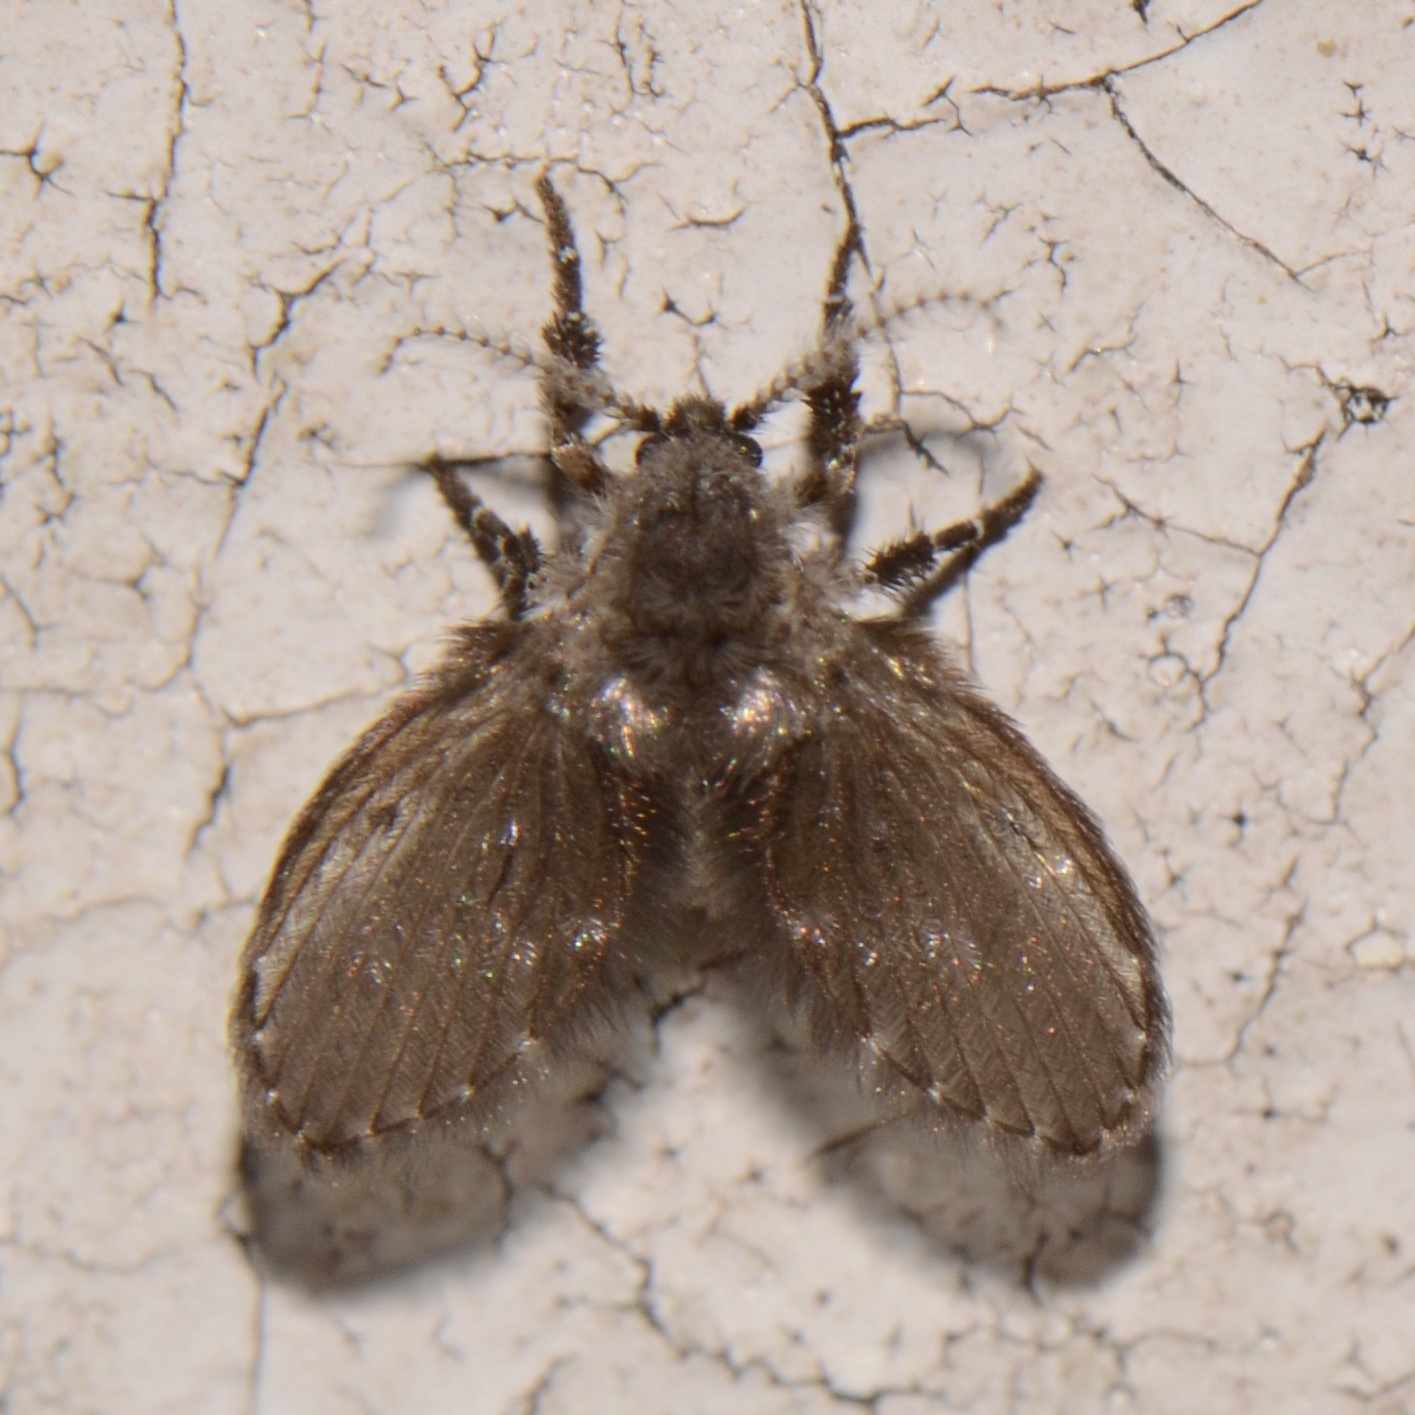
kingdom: Animalia
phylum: Arthropoda
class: Insecta
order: Diptera
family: Psychodidae
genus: Clogmia
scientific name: Clogmia albipunctatus
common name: White-spotted moth fly
